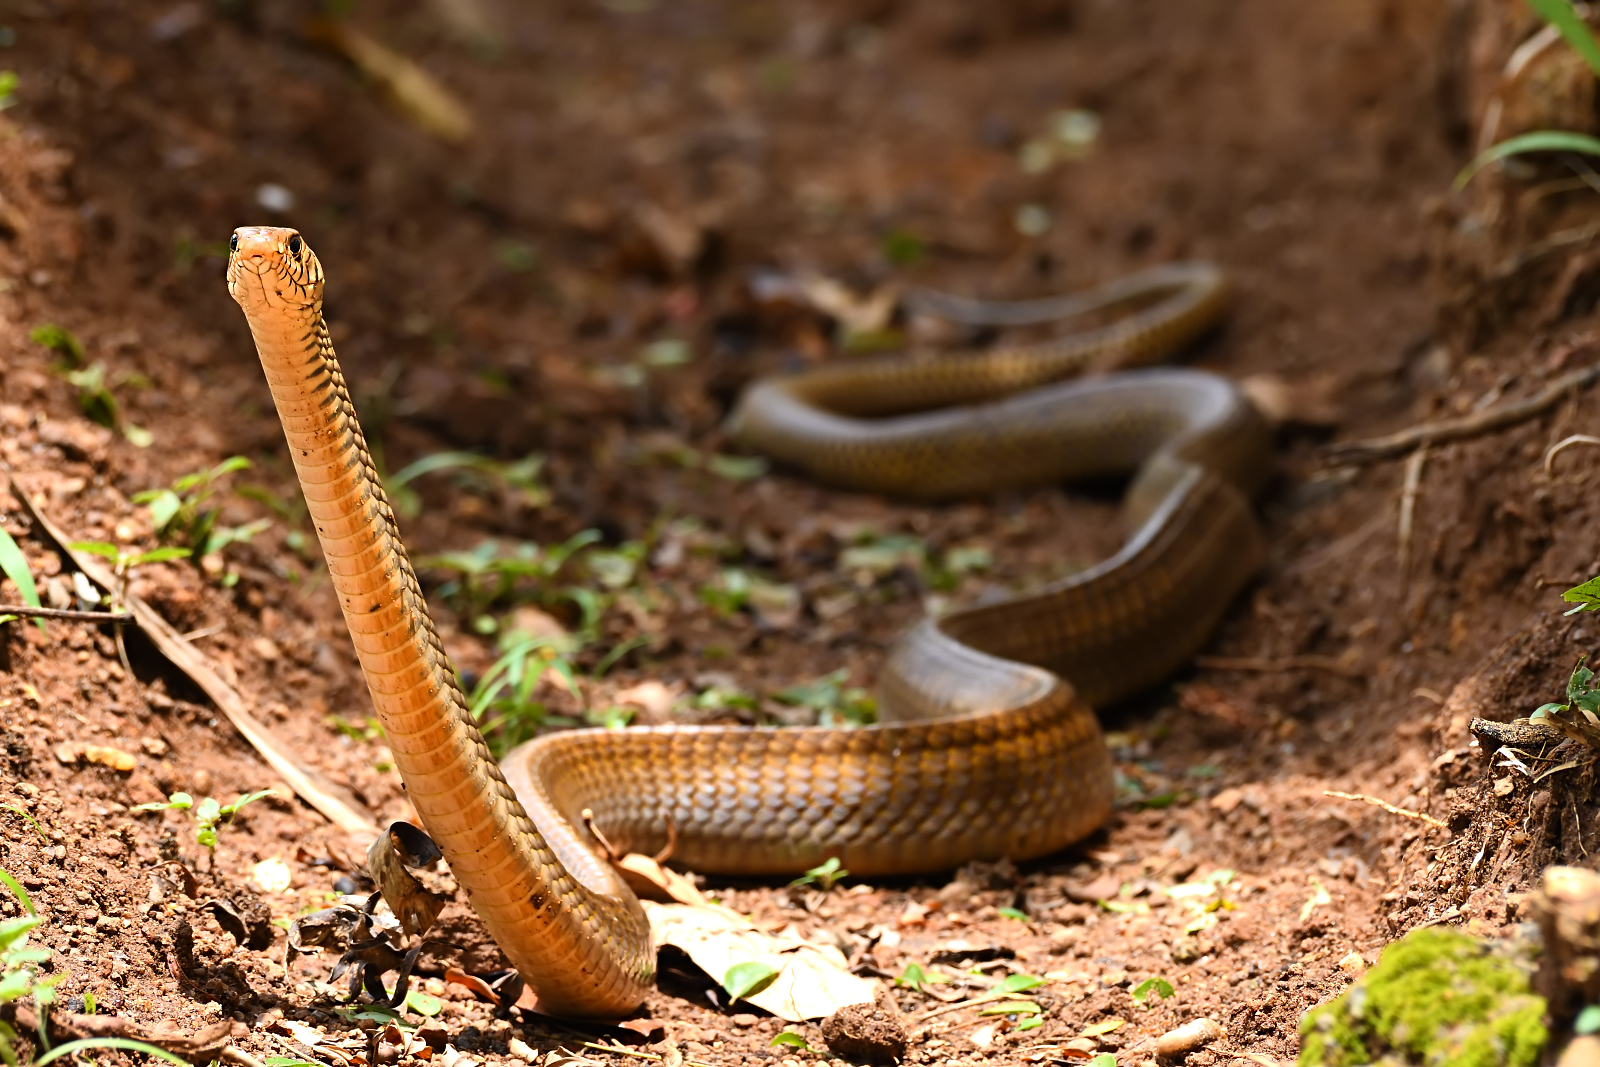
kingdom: Animalia
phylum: Chordata
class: Squamata
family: Colubridae
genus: Ptyas
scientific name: Ptyas mucosa
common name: Oriental ratsnake
